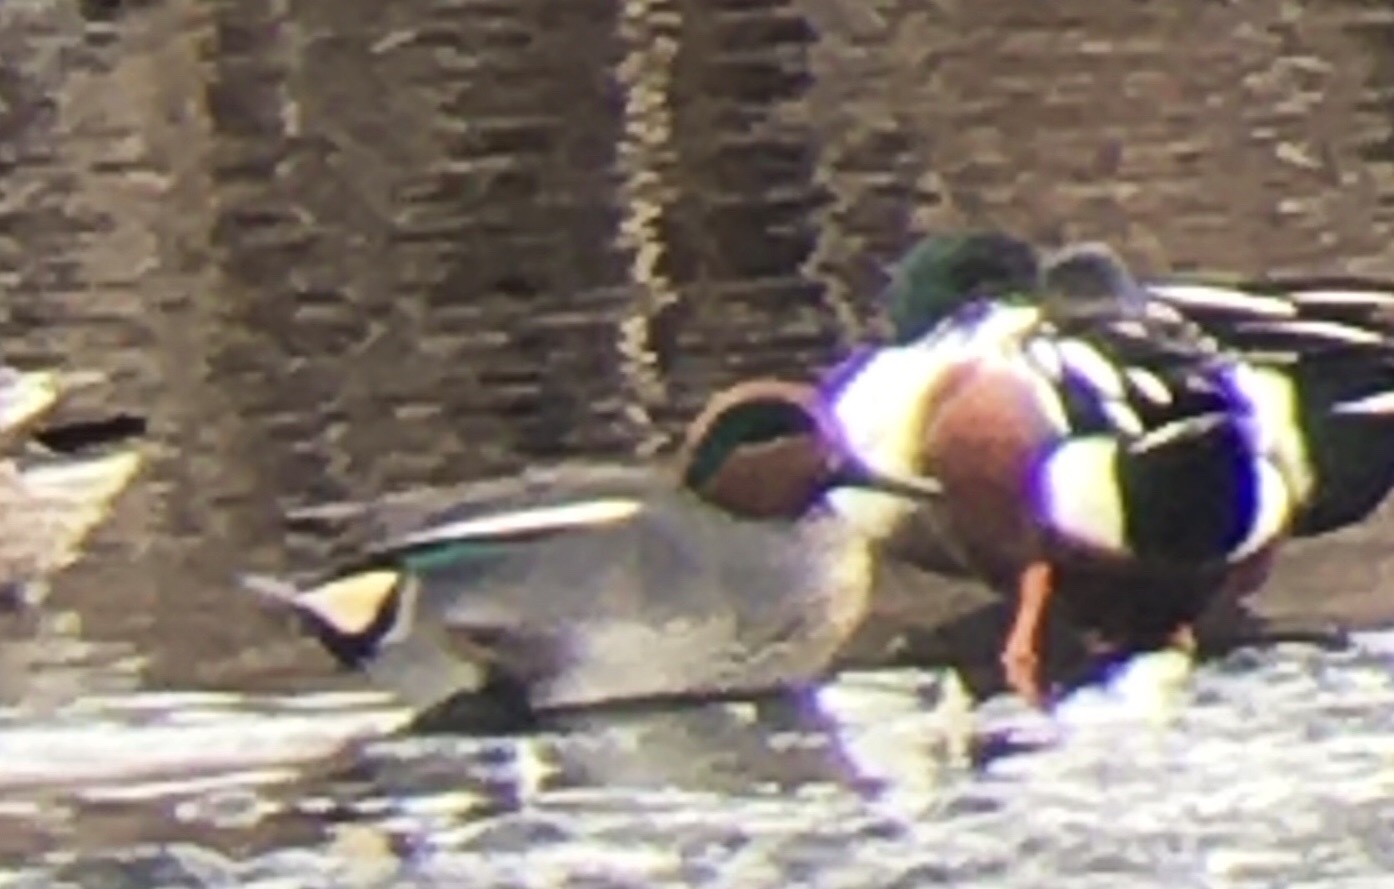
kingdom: Animalia
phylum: Chordata
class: Aves
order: Anseriformes
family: Anatidae
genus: Anas
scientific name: Anas crecca
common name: Eurasian teal
